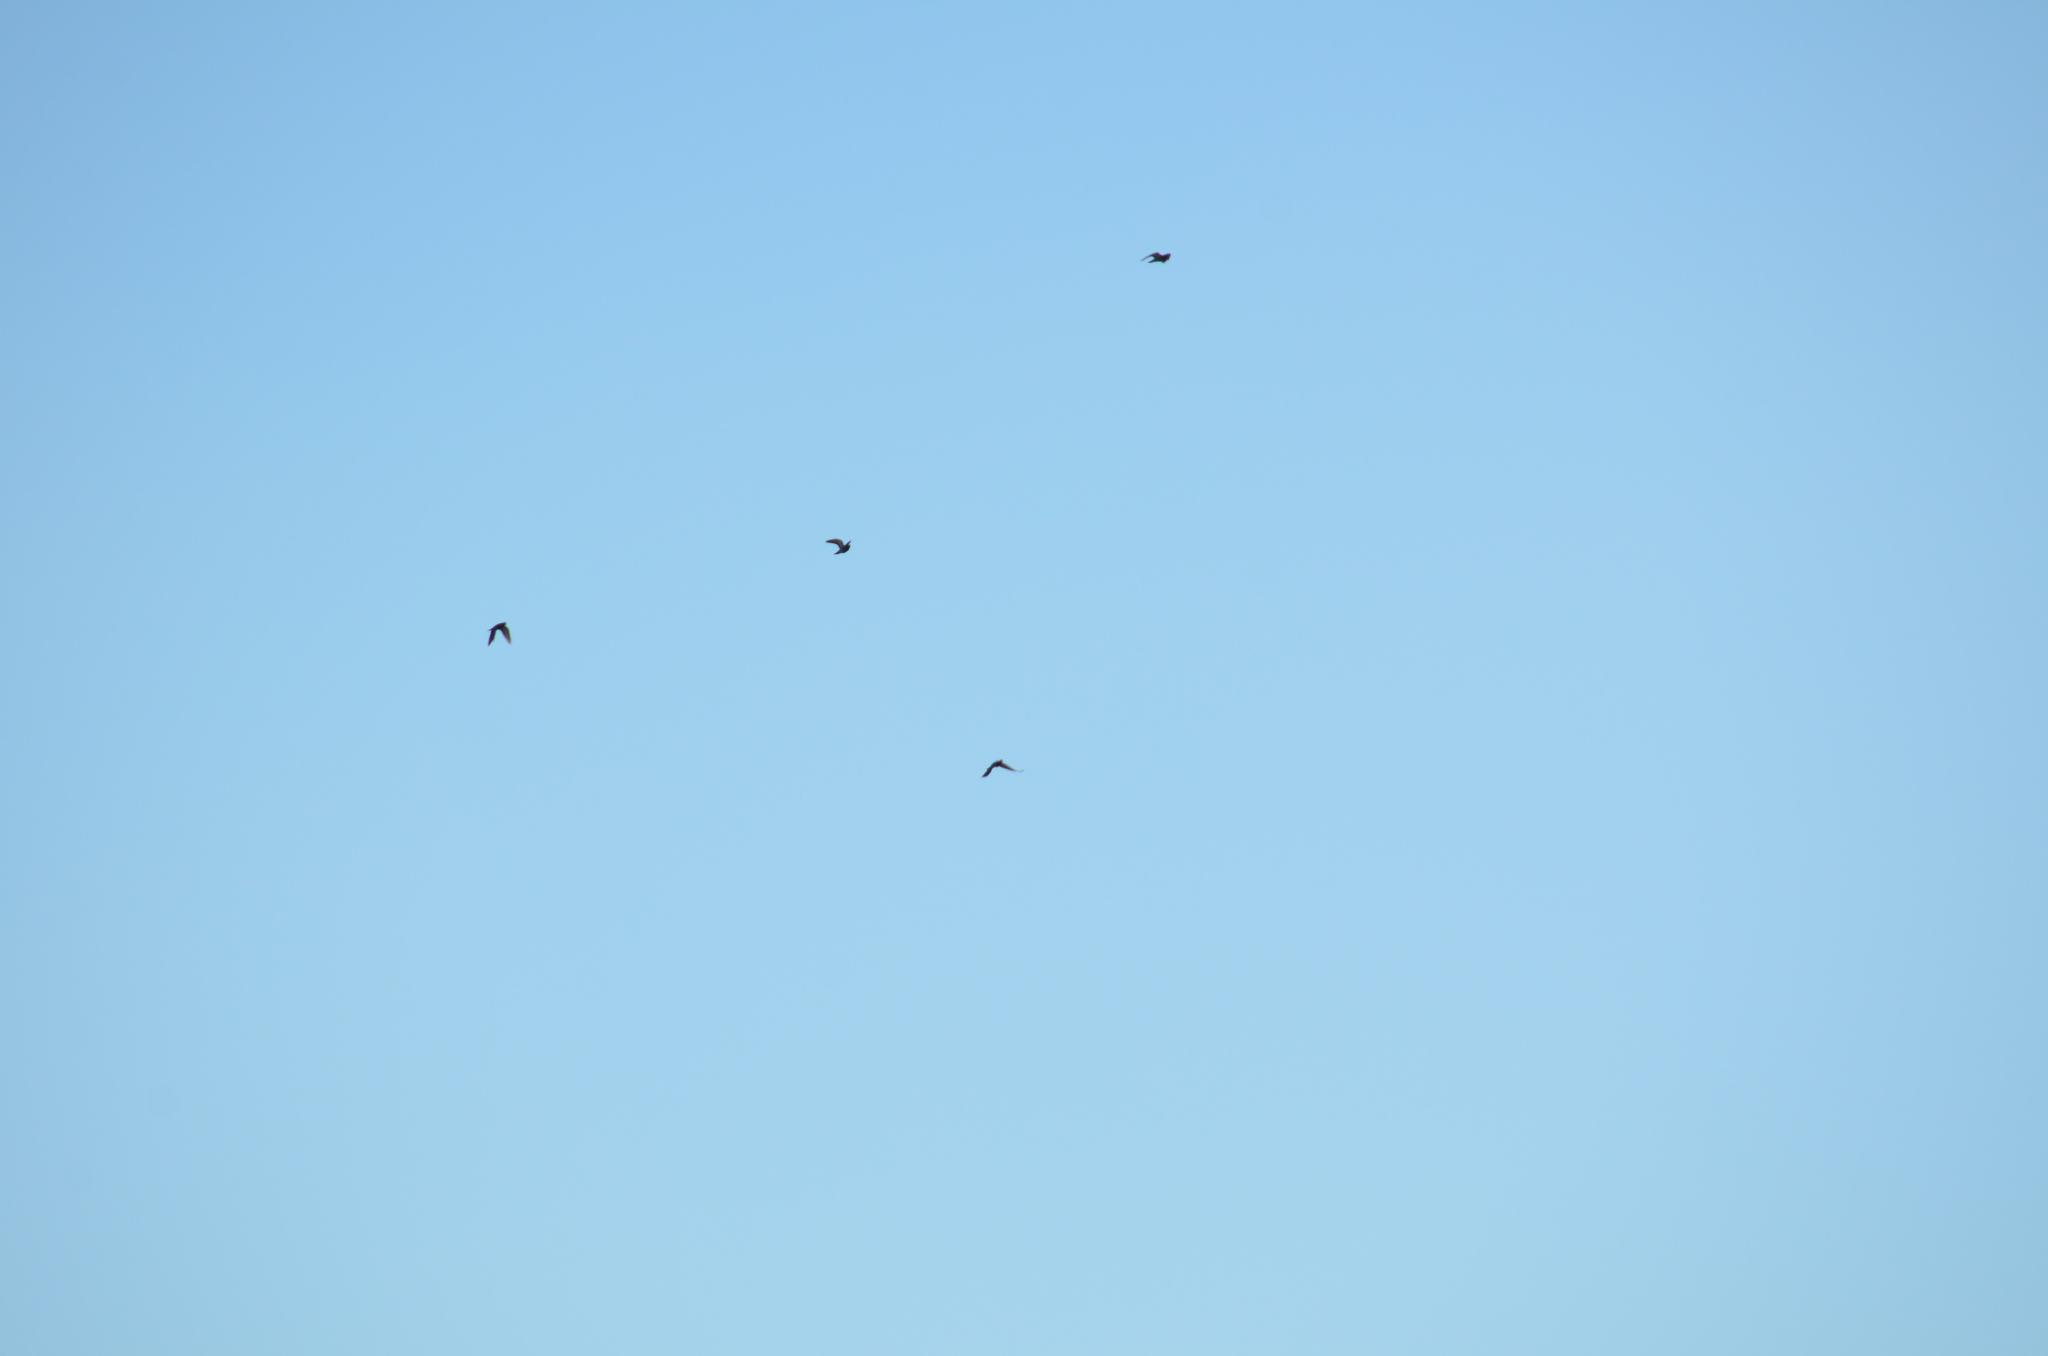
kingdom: Animalia
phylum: Chordata
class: Aves
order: Columbiformes
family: Columbidae
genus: Columba
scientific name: Columba livia
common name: Rock pigeon
